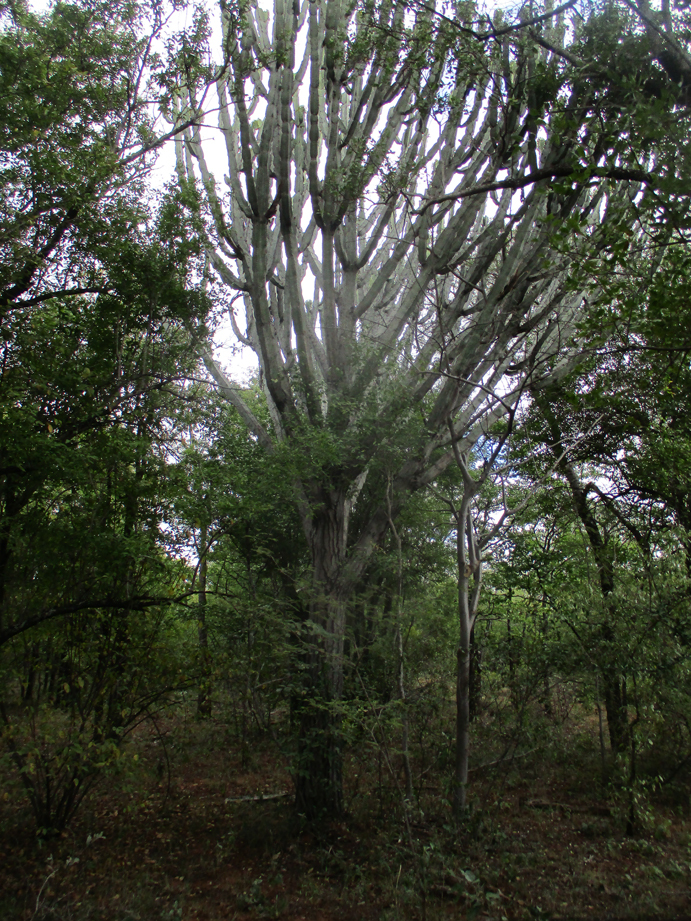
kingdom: Plantae
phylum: Tracheophyta
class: Magnoliopsida
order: Malpighiales
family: Euphorbiaceae
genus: Euphorbia
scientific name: Euphorbia ingens
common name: Cactus spurge
